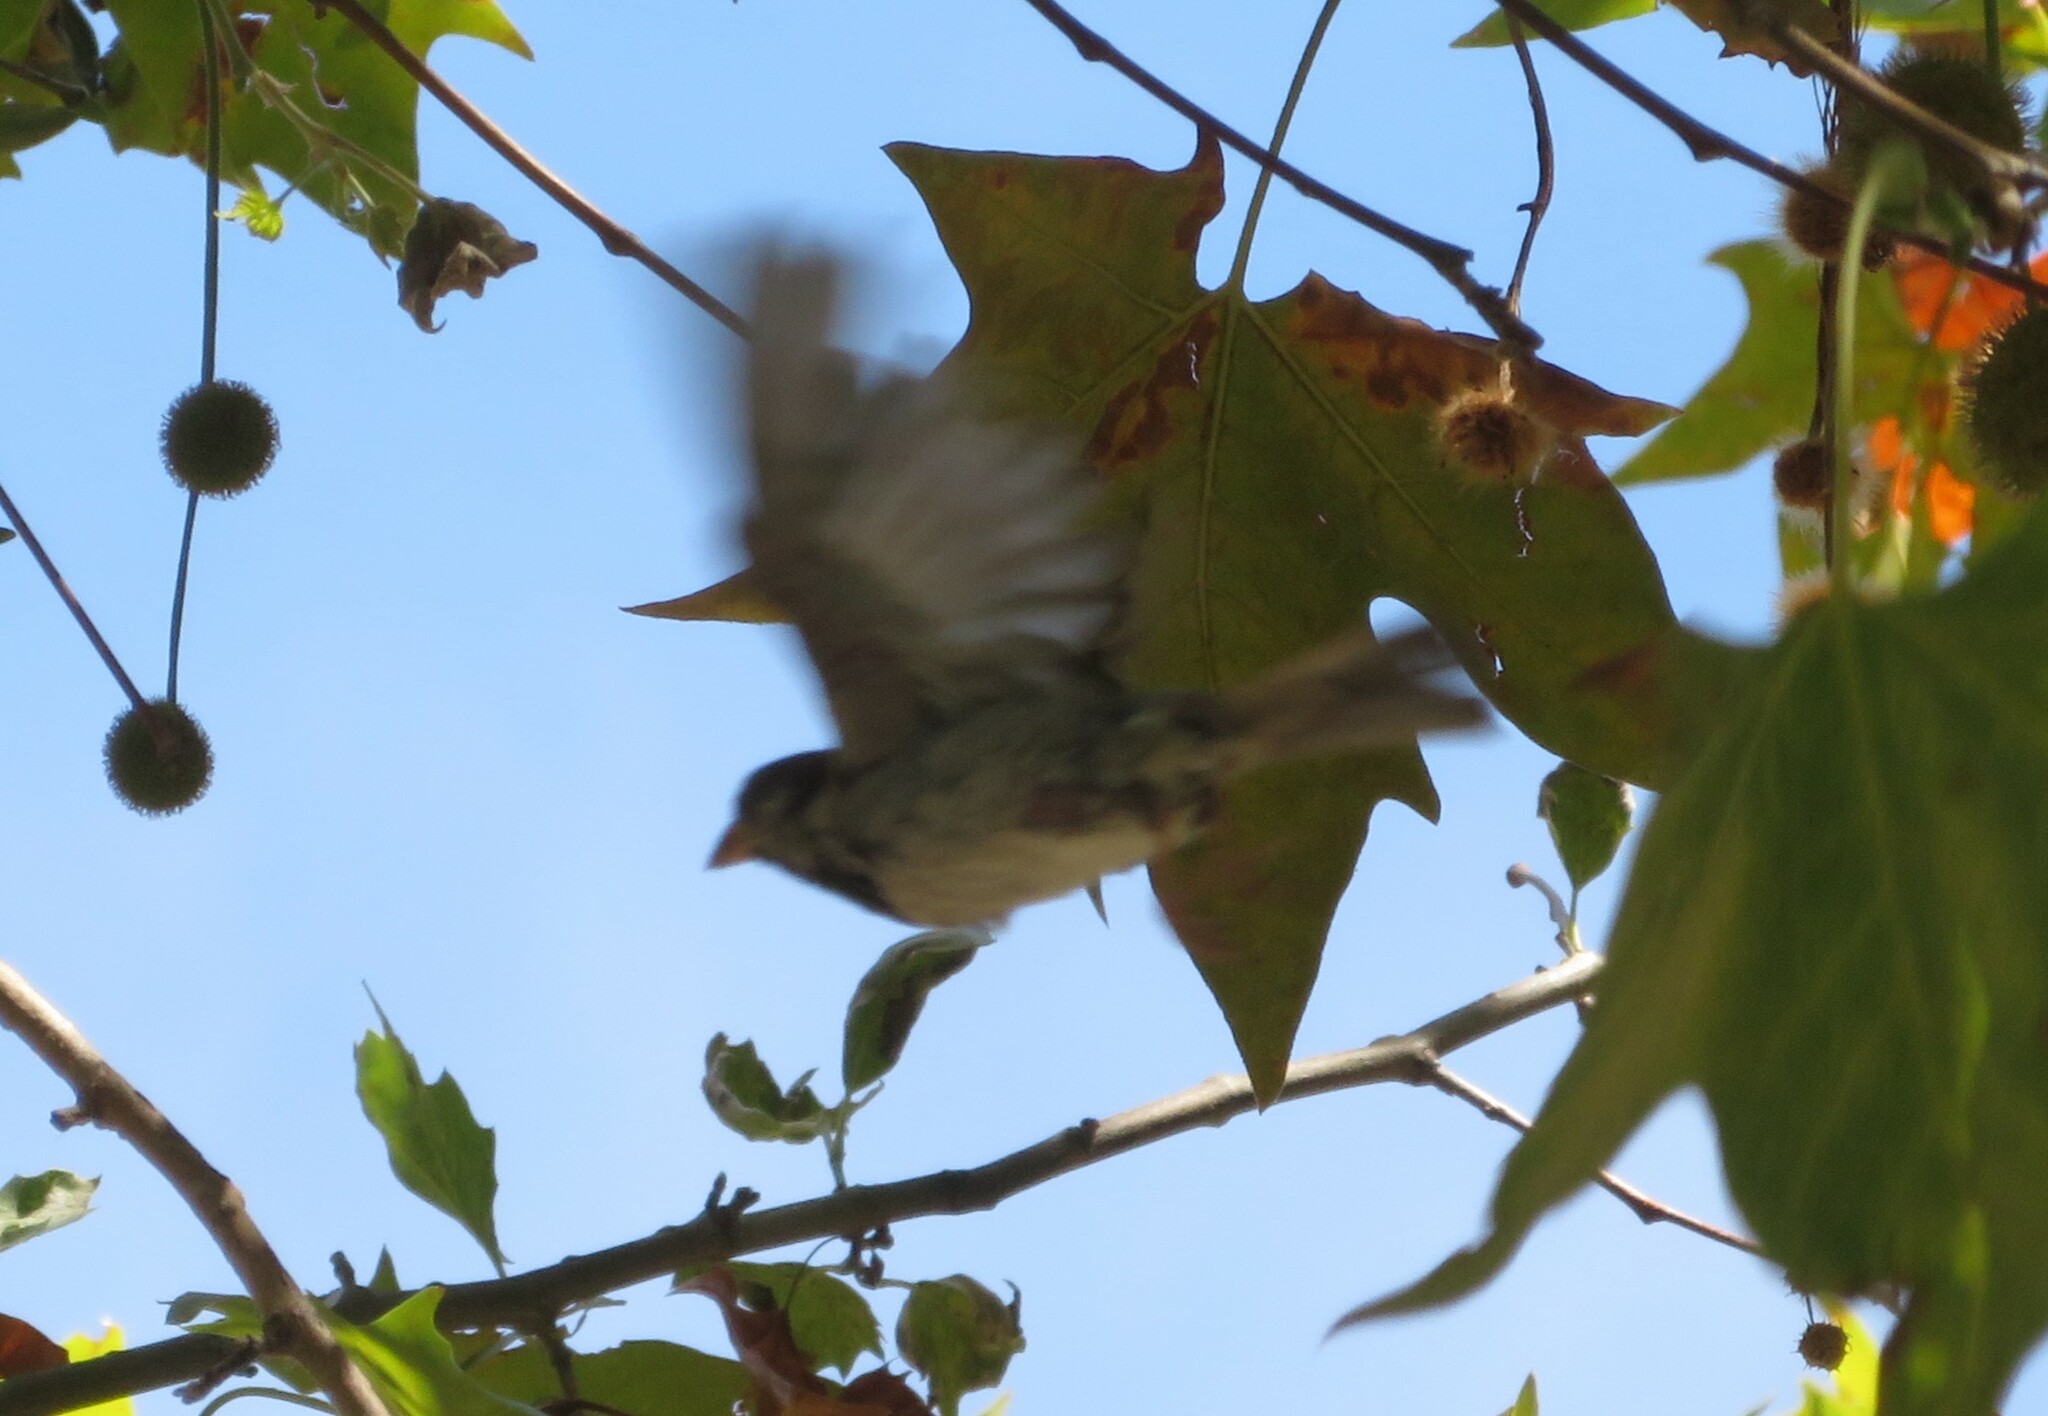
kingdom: Animalia
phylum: Chordata
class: Aves
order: Passeriformes
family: Passeridae
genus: Passer
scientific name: Passer domesticus
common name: House sparrow
